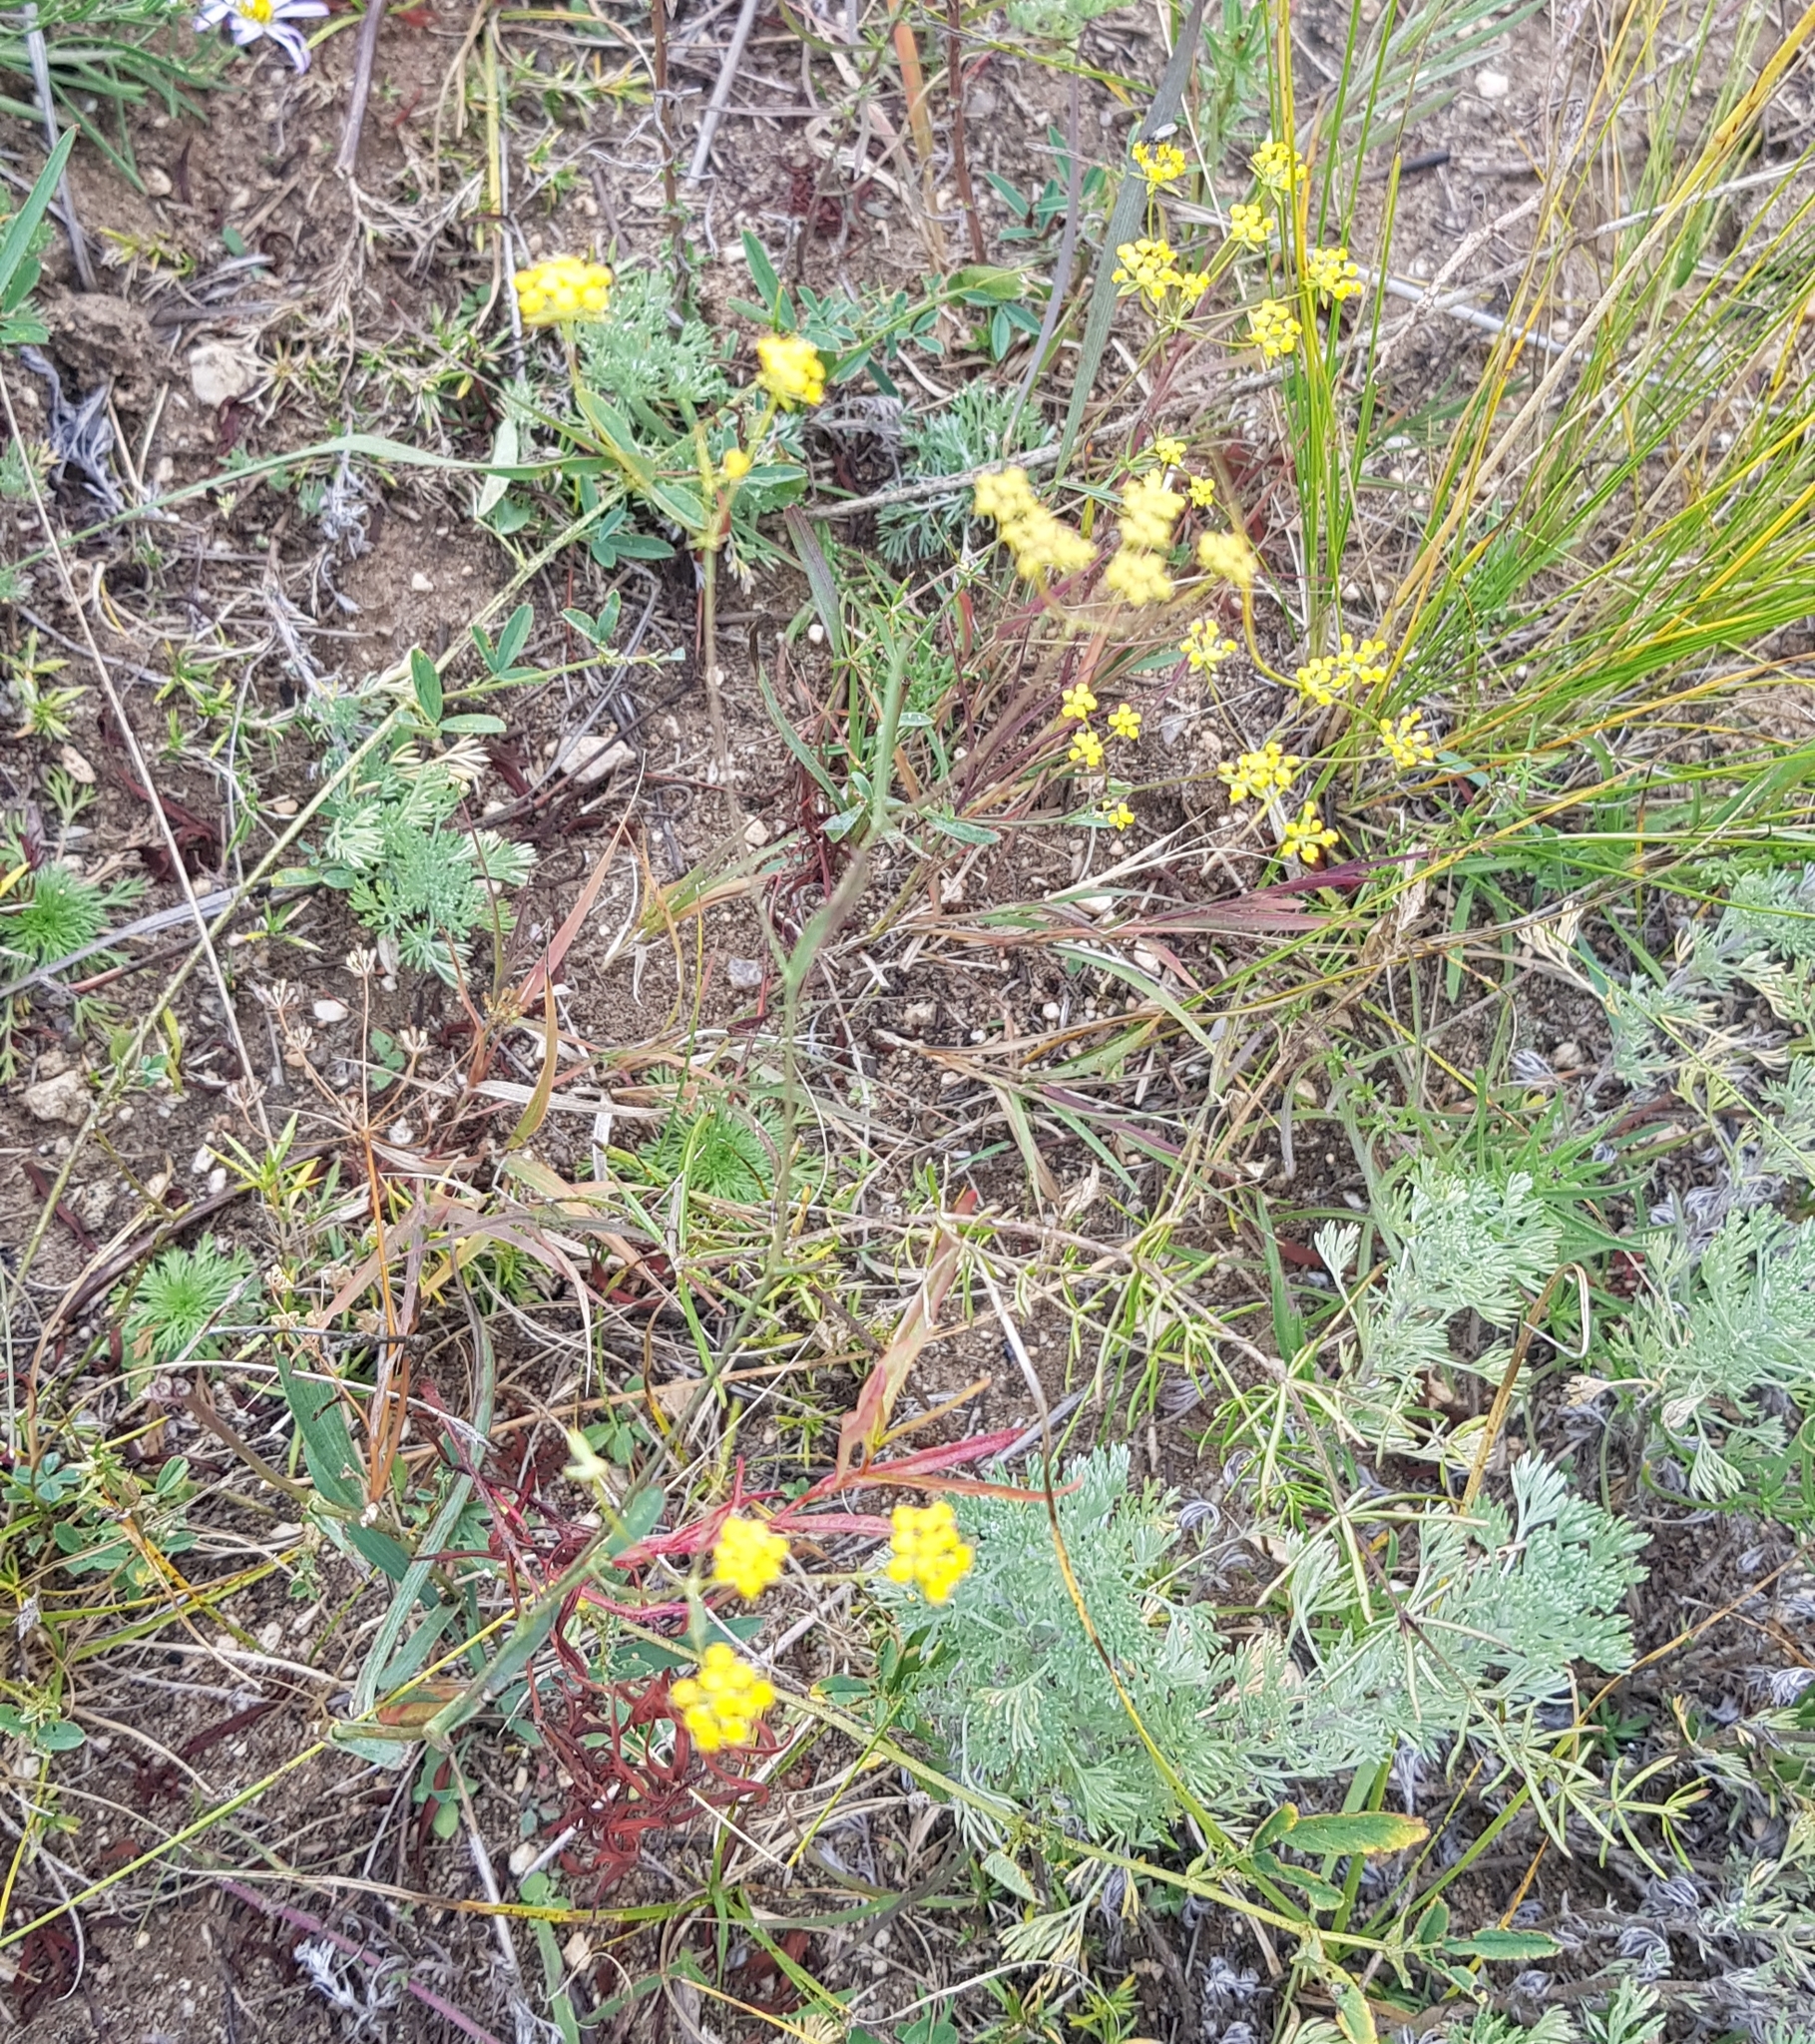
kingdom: Plantae
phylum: Tracheophyta
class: Magnoliopsida
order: Apiales
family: Apiaceae
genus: Bupleurum
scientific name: Bupleurum bicaule
